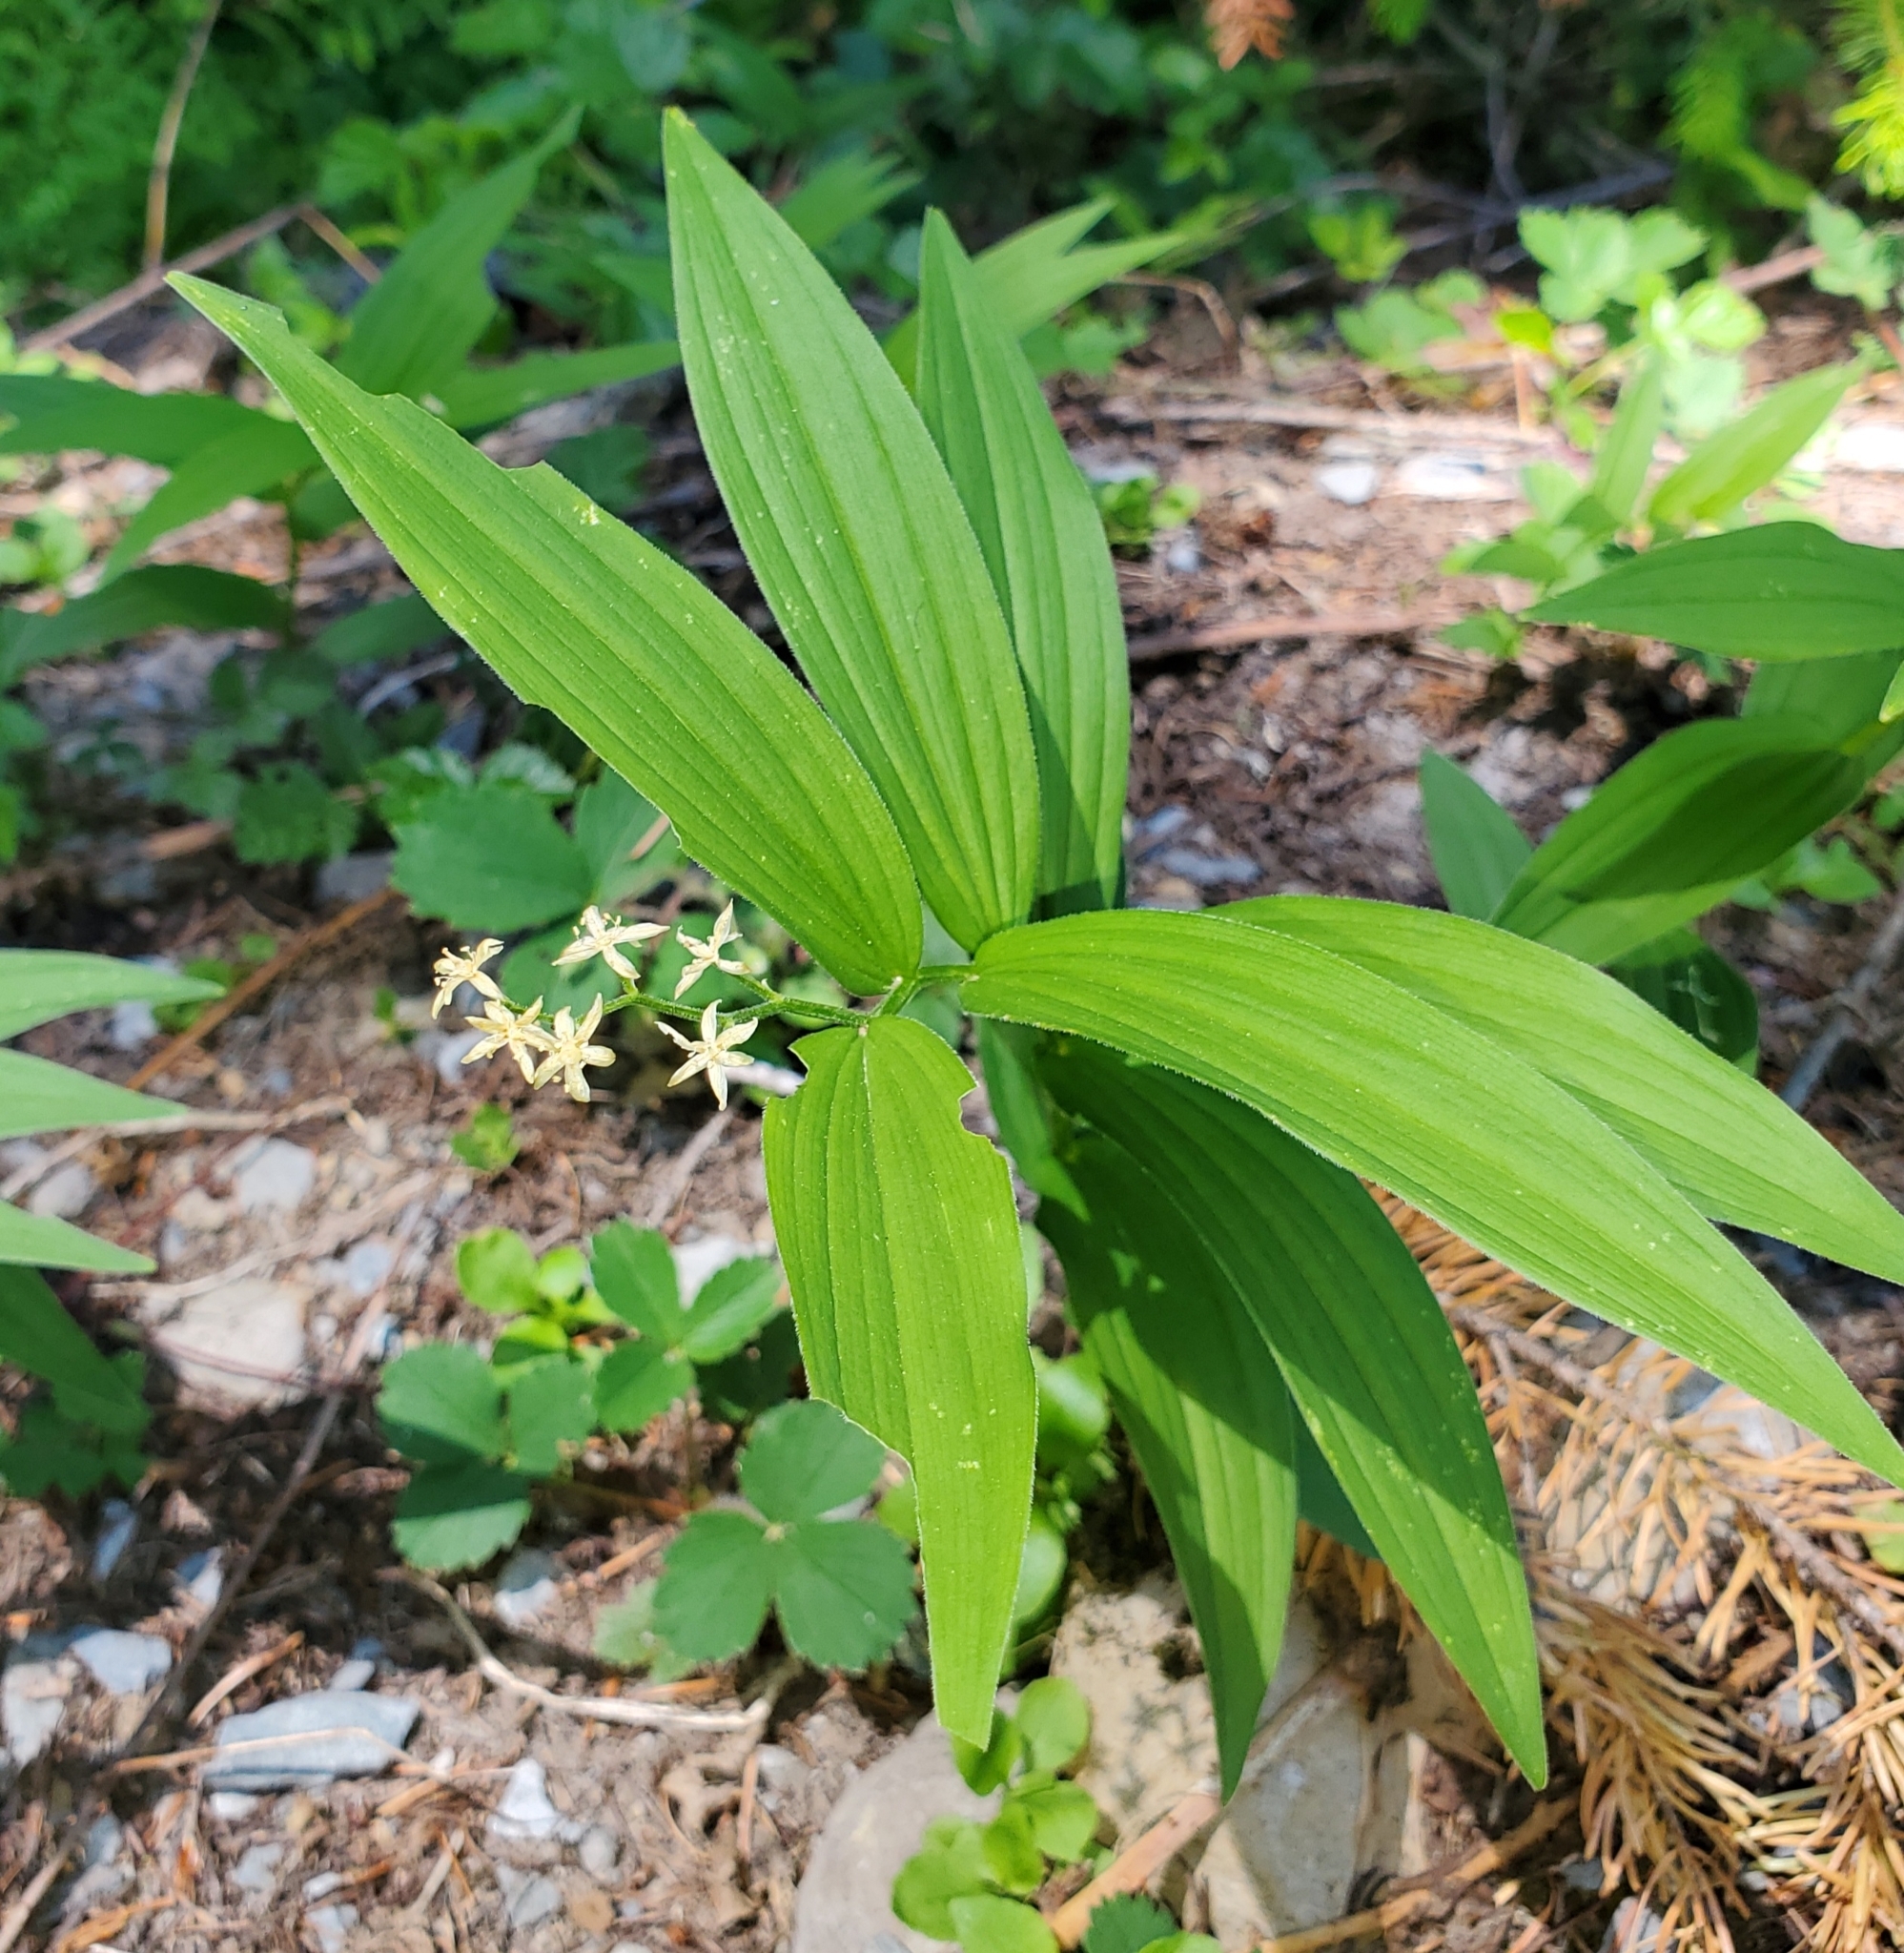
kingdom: Plantae
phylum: Tracheophyta
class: Liliopsida
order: Asparagales
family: Asparagaceae
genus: Maianthemum
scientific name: Maianthemum stellatum
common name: Little false solomon's seal
